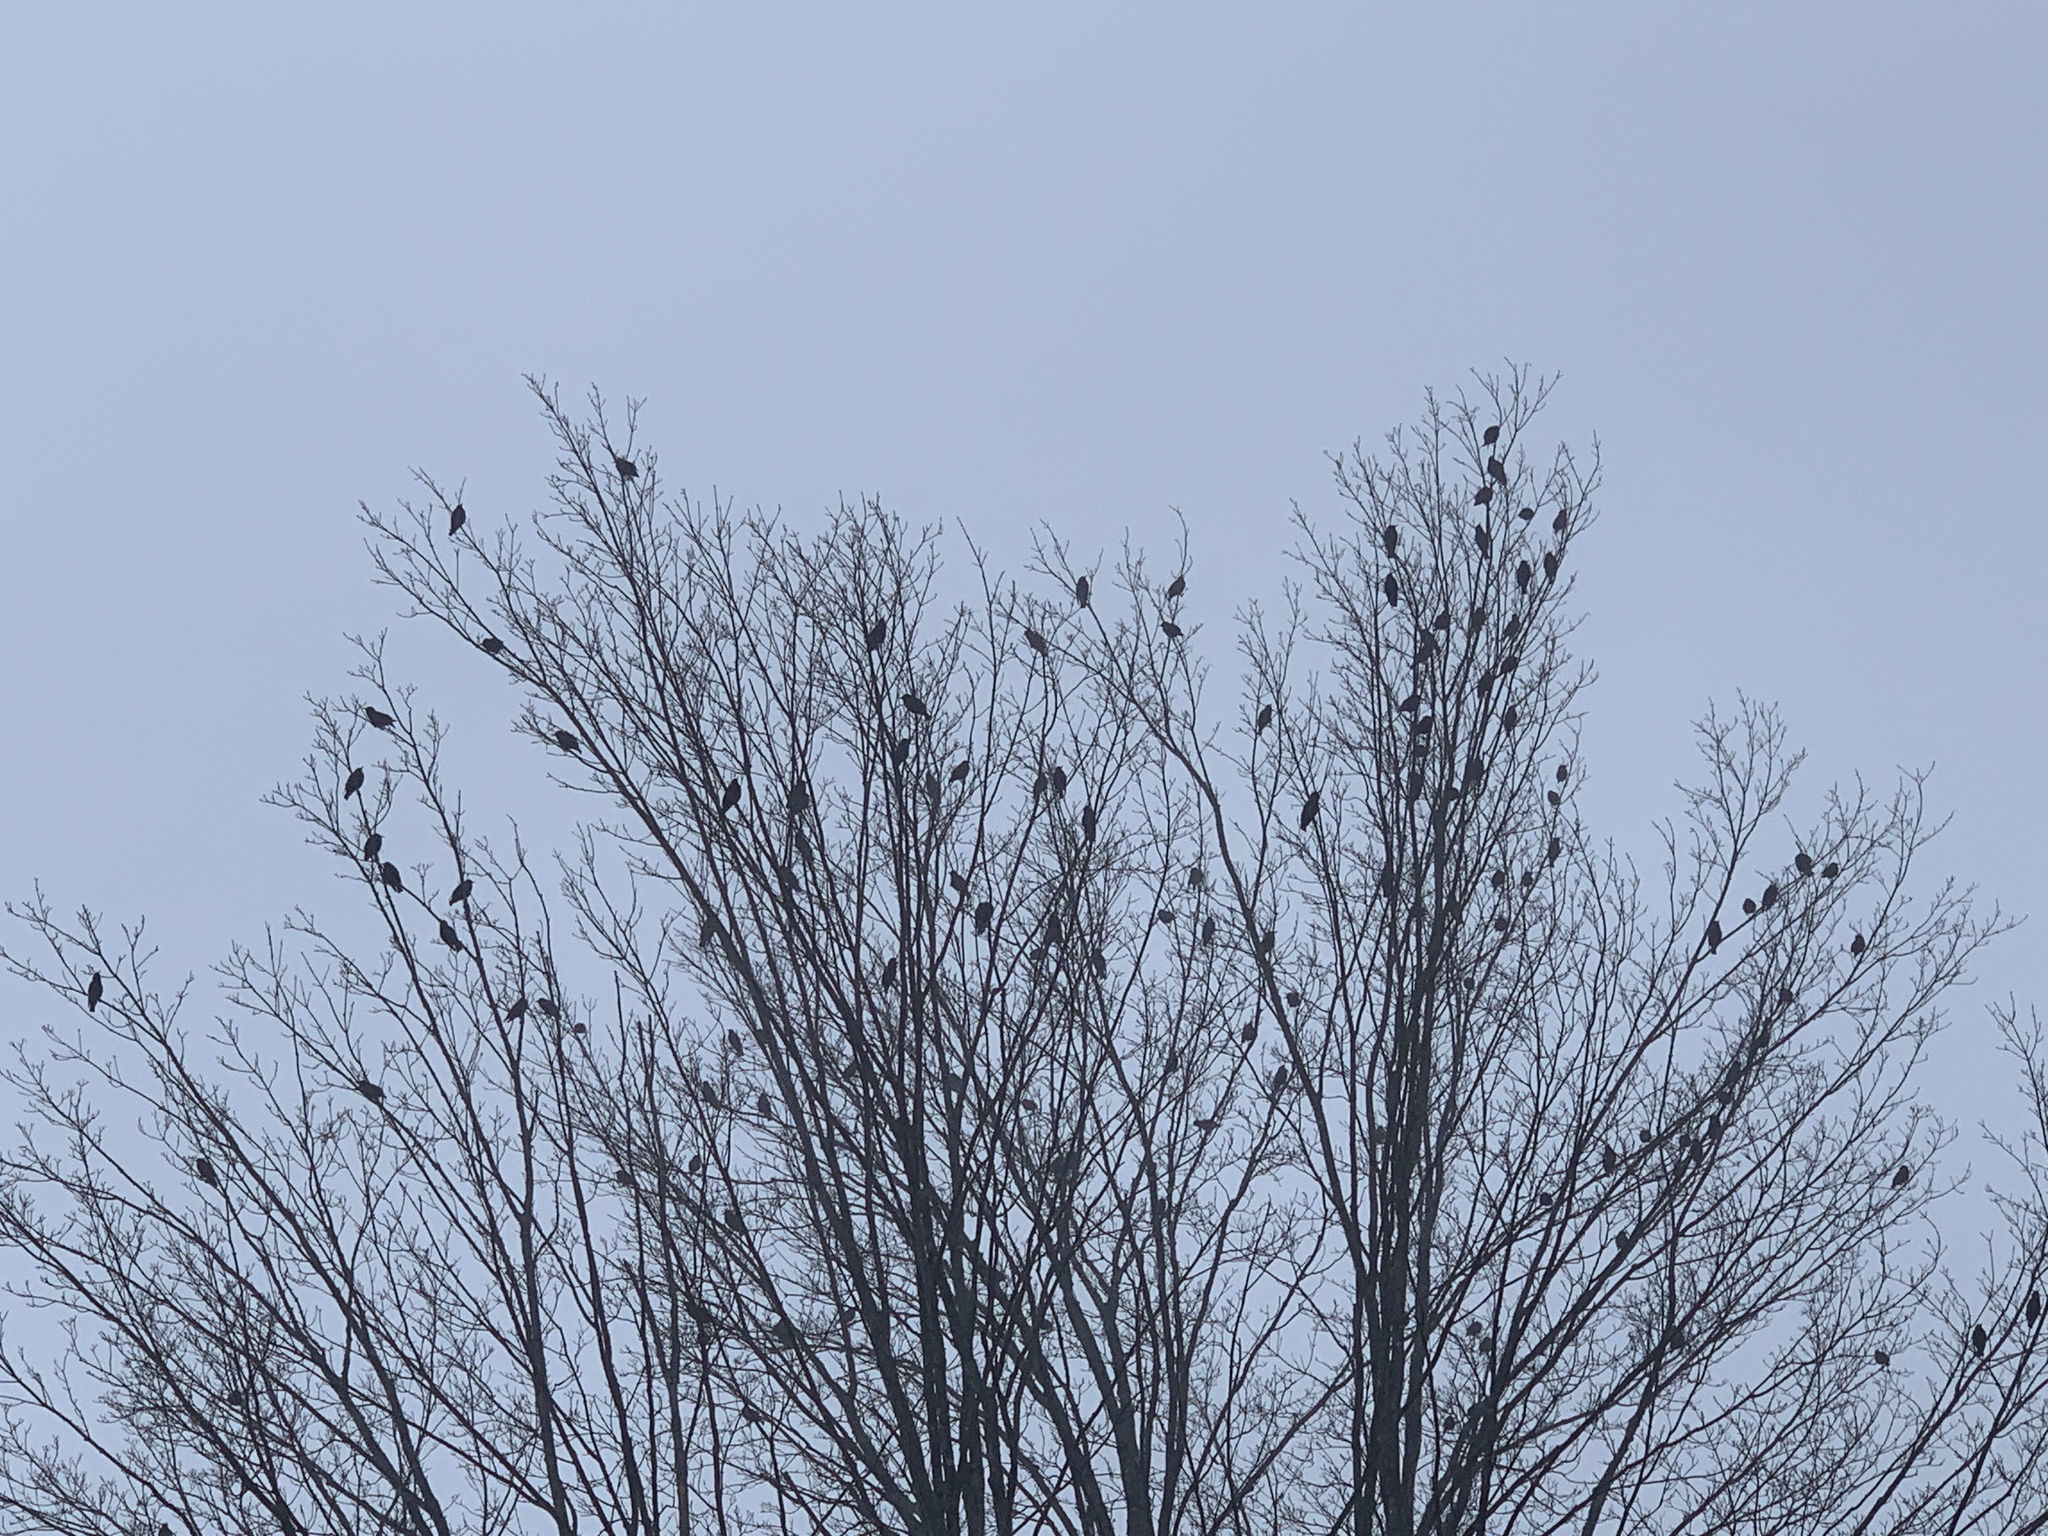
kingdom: Animalia
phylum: Chordata
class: Aves
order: Passeriformes
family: Sturnidae
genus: Sturnus
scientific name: Sturnus vulgaris
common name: Common starling
